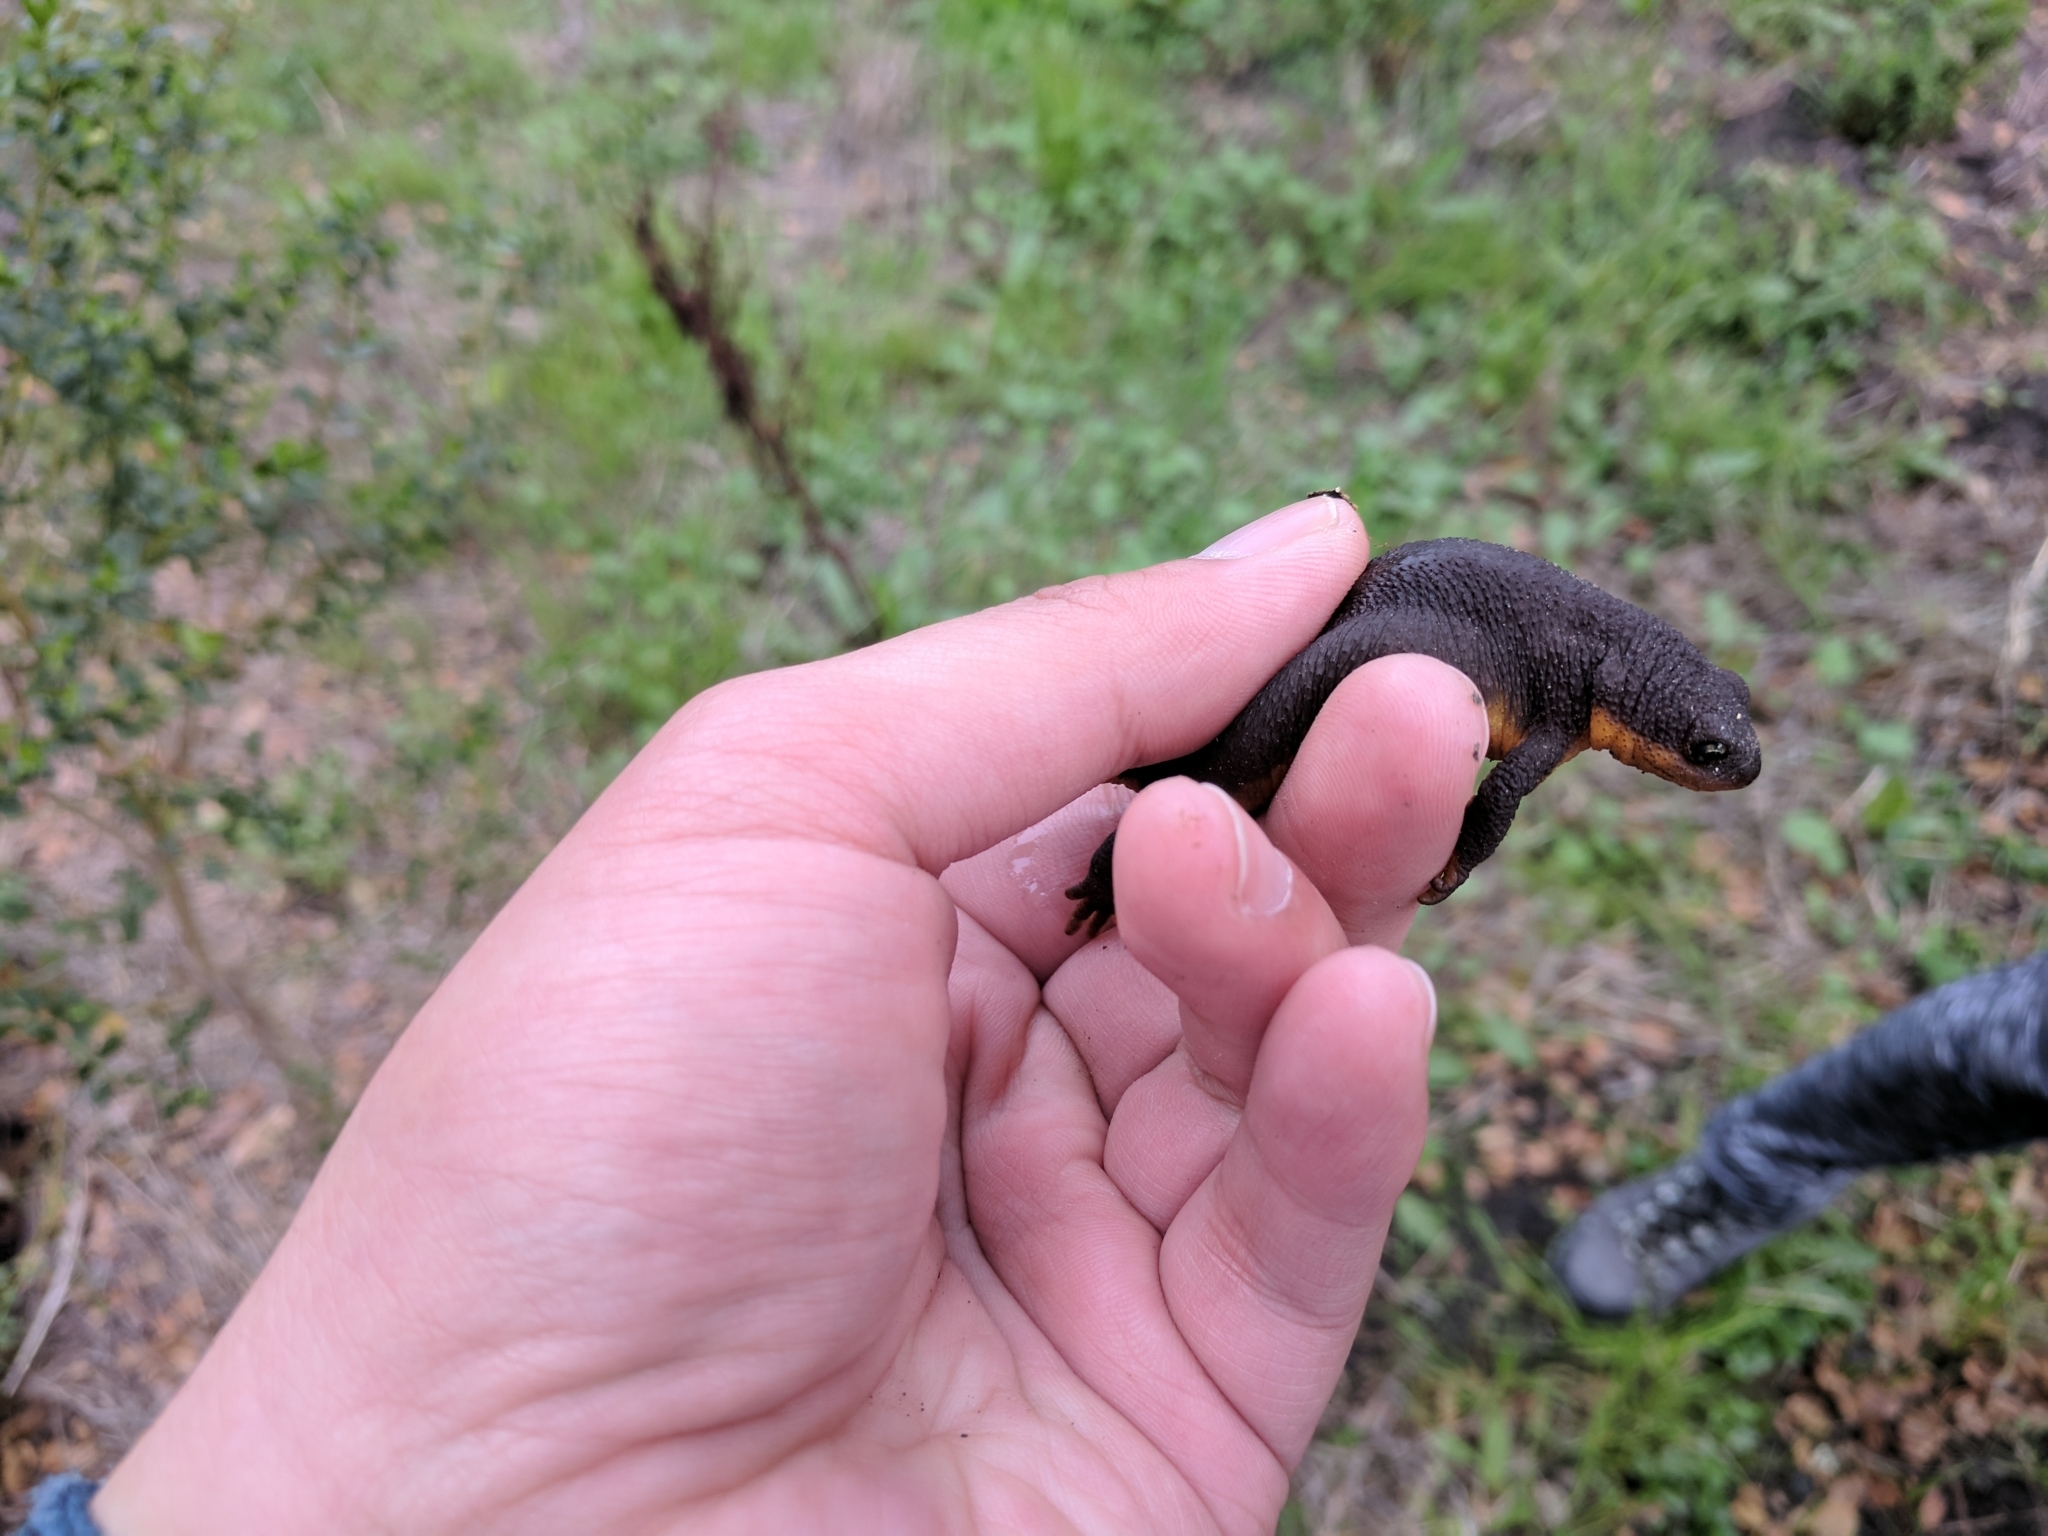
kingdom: Animalia
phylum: Chordata
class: Amphibia
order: Caudata
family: Salamandridae
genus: Taricha
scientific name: Taricha torosa
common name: California newt
